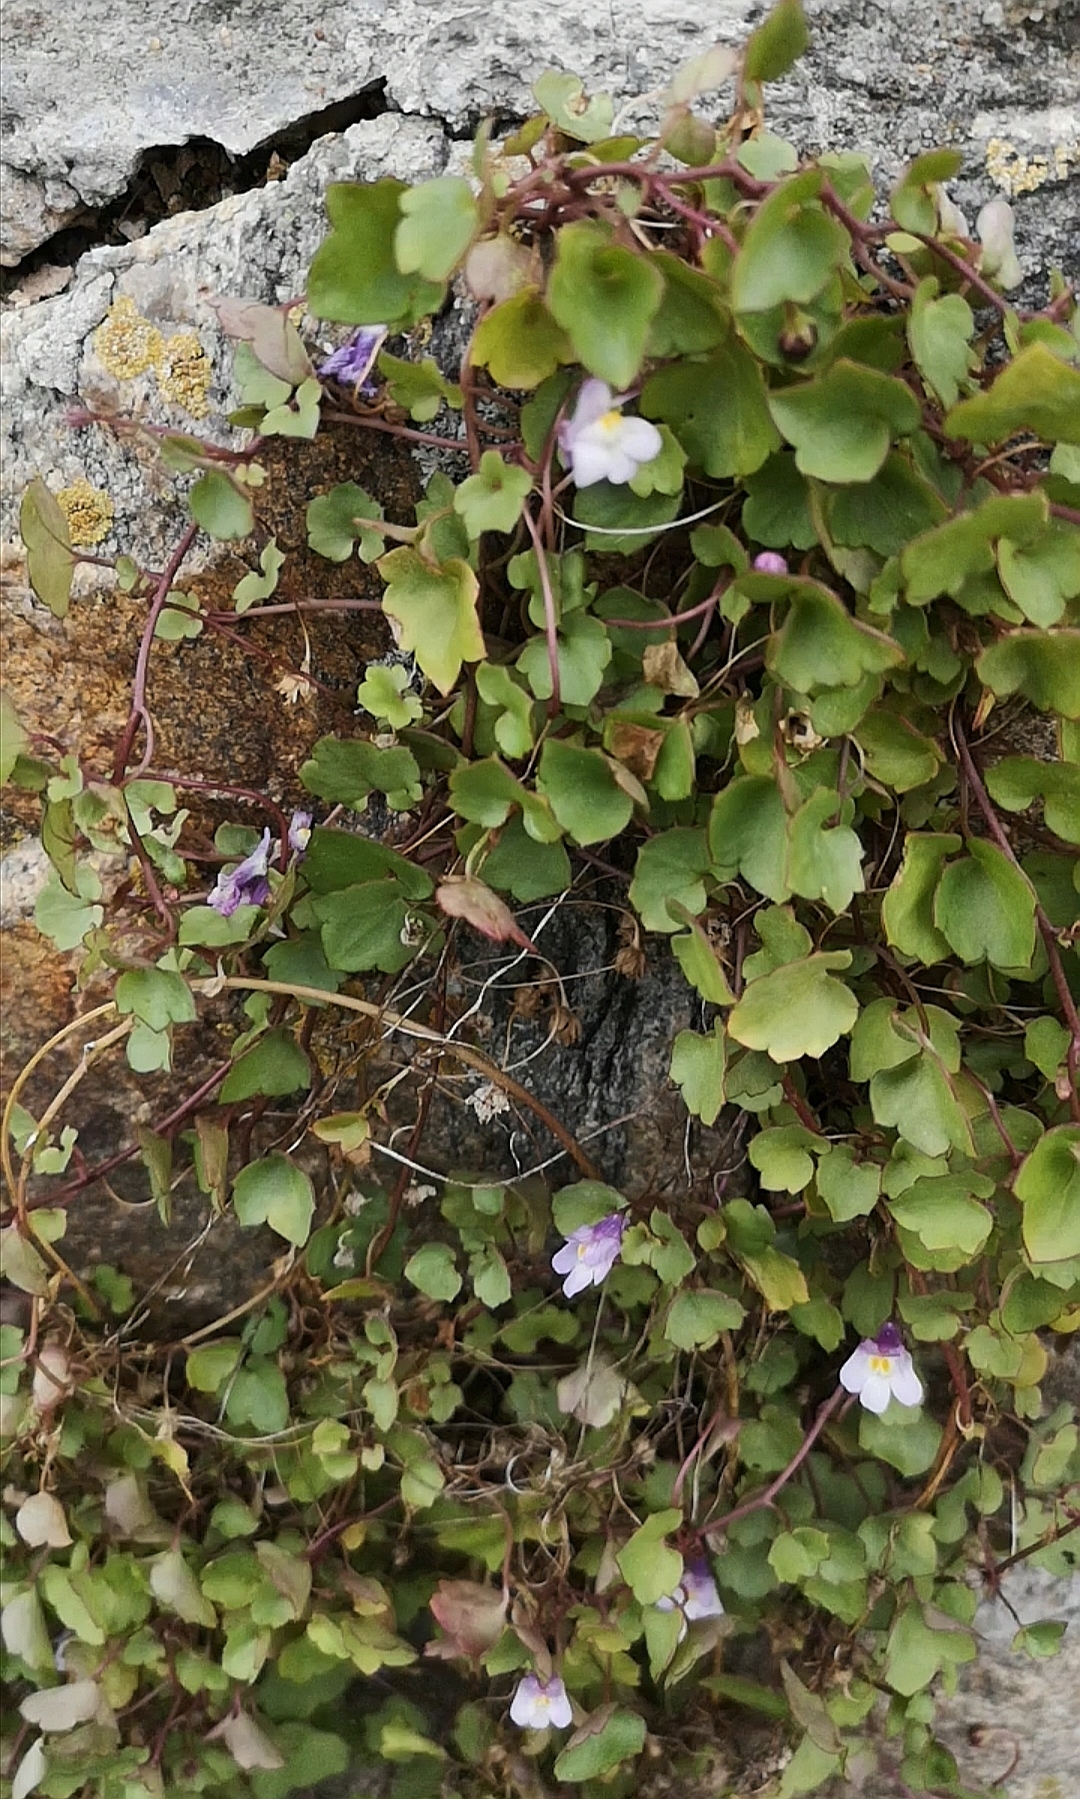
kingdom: Plantae
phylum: Tracheophyta
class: Magnoliopsida
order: Lamiales
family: Plantaginaceae
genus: Cymbalaria
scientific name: Cymbalaria muralis
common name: Ivy-leaved toadflax
